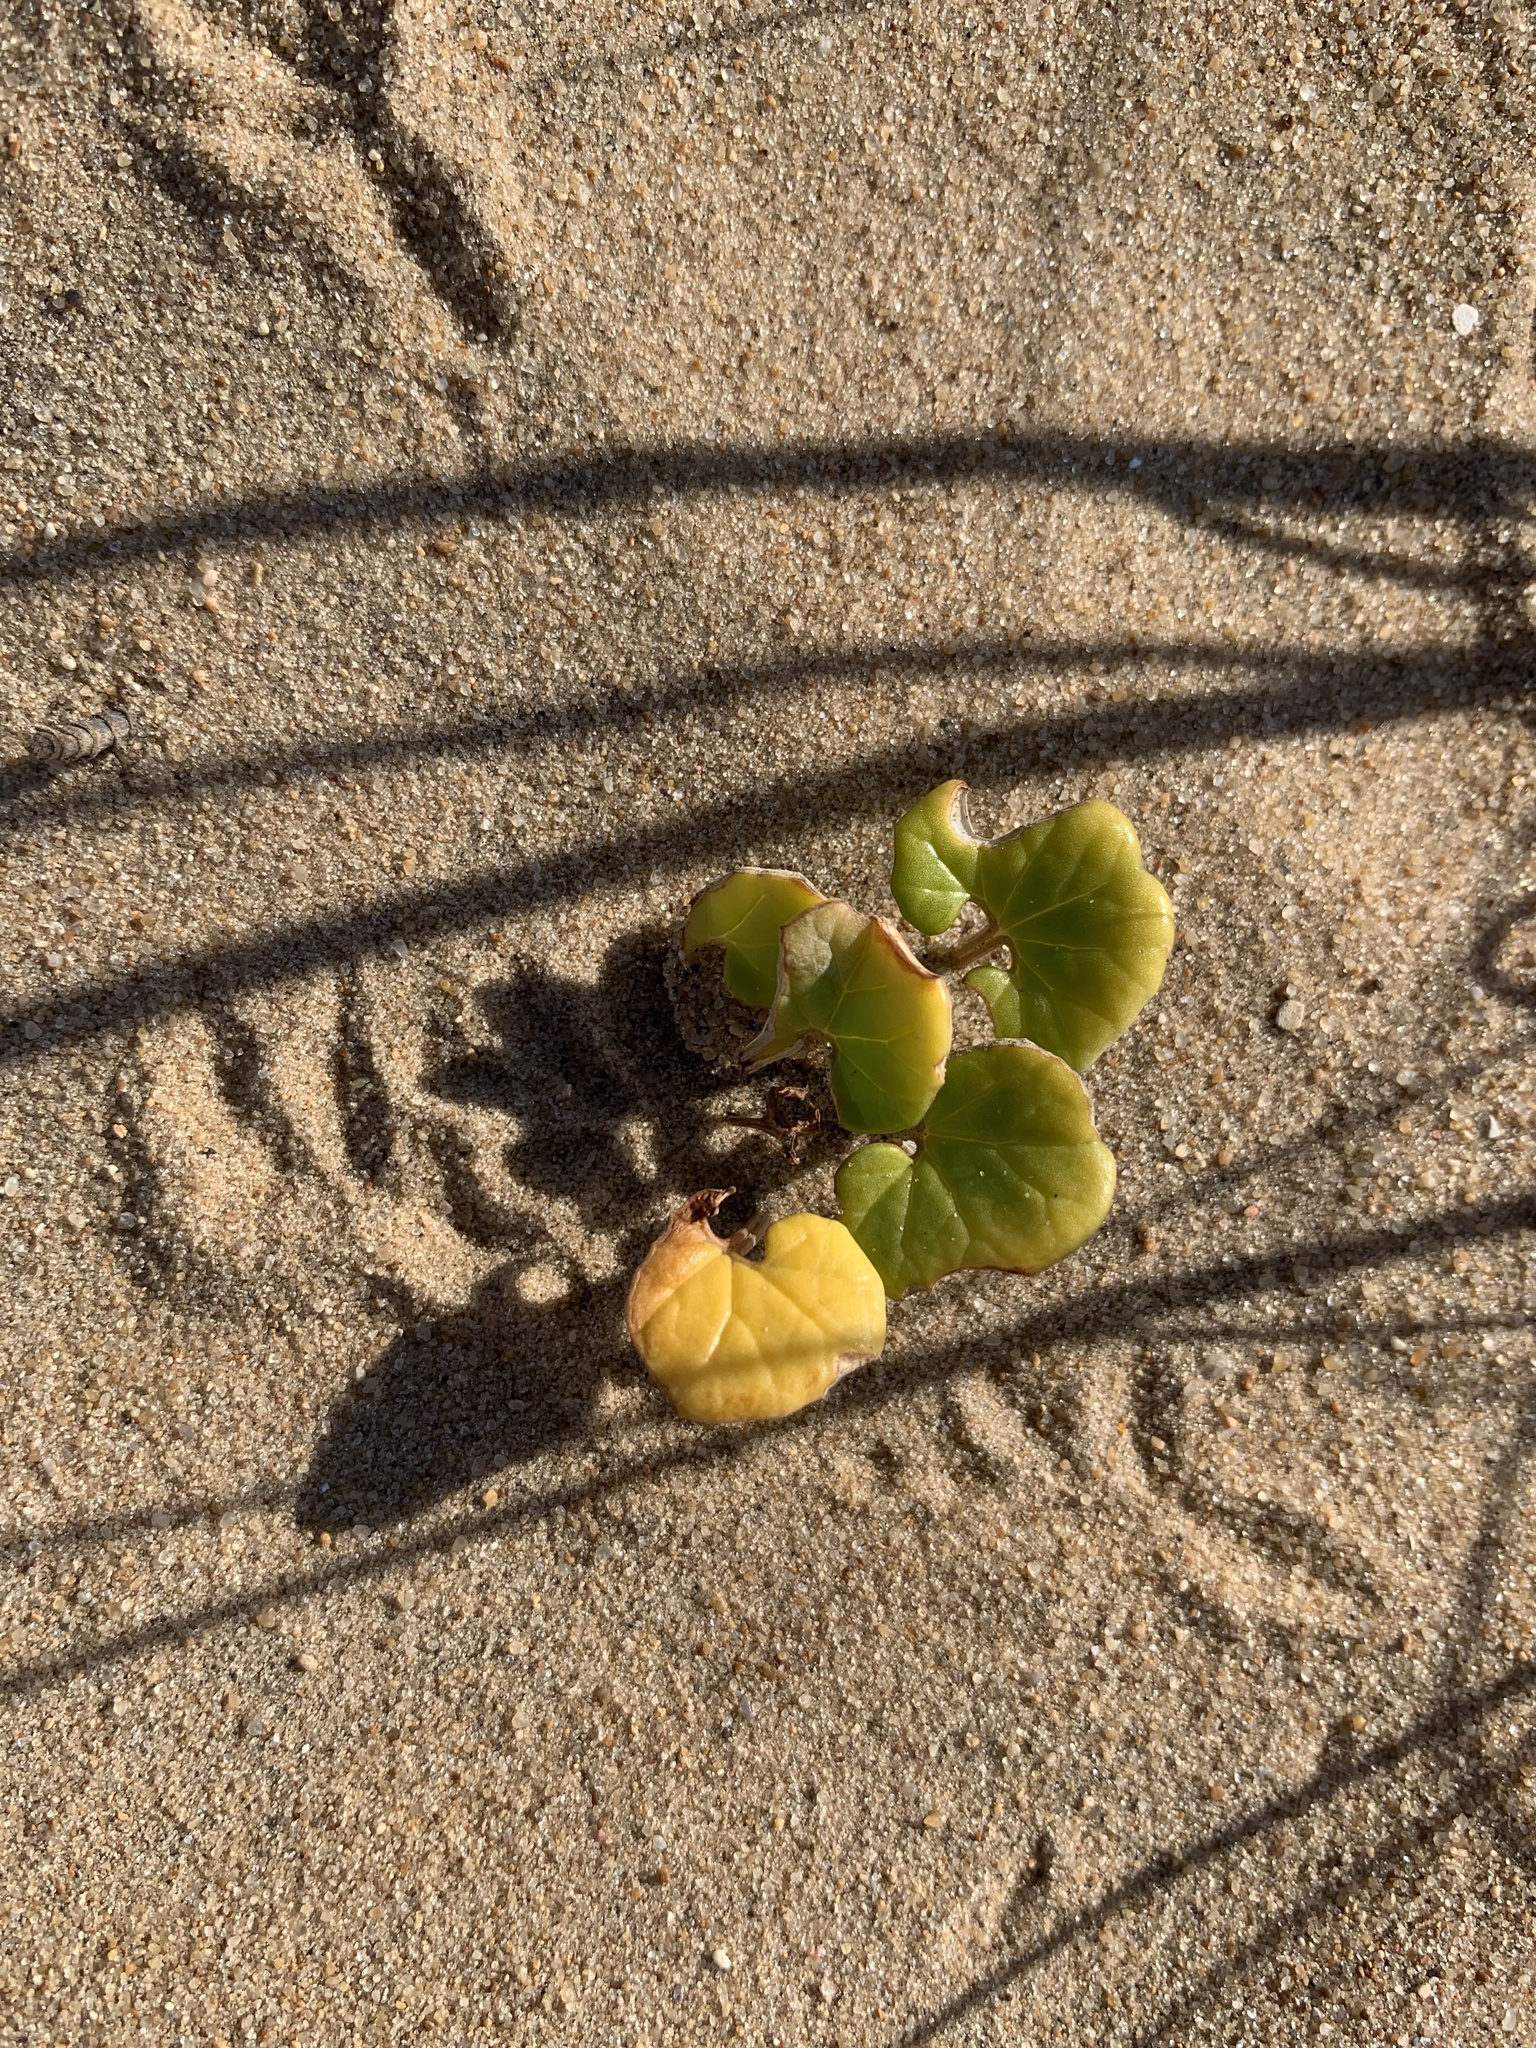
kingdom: Plantae
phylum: Tracheophyta
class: Magnoliopsida
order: Solanales
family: Convolvulaceae
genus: Calystegia
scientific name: Calystegia soldanella
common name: Sea bindweed
